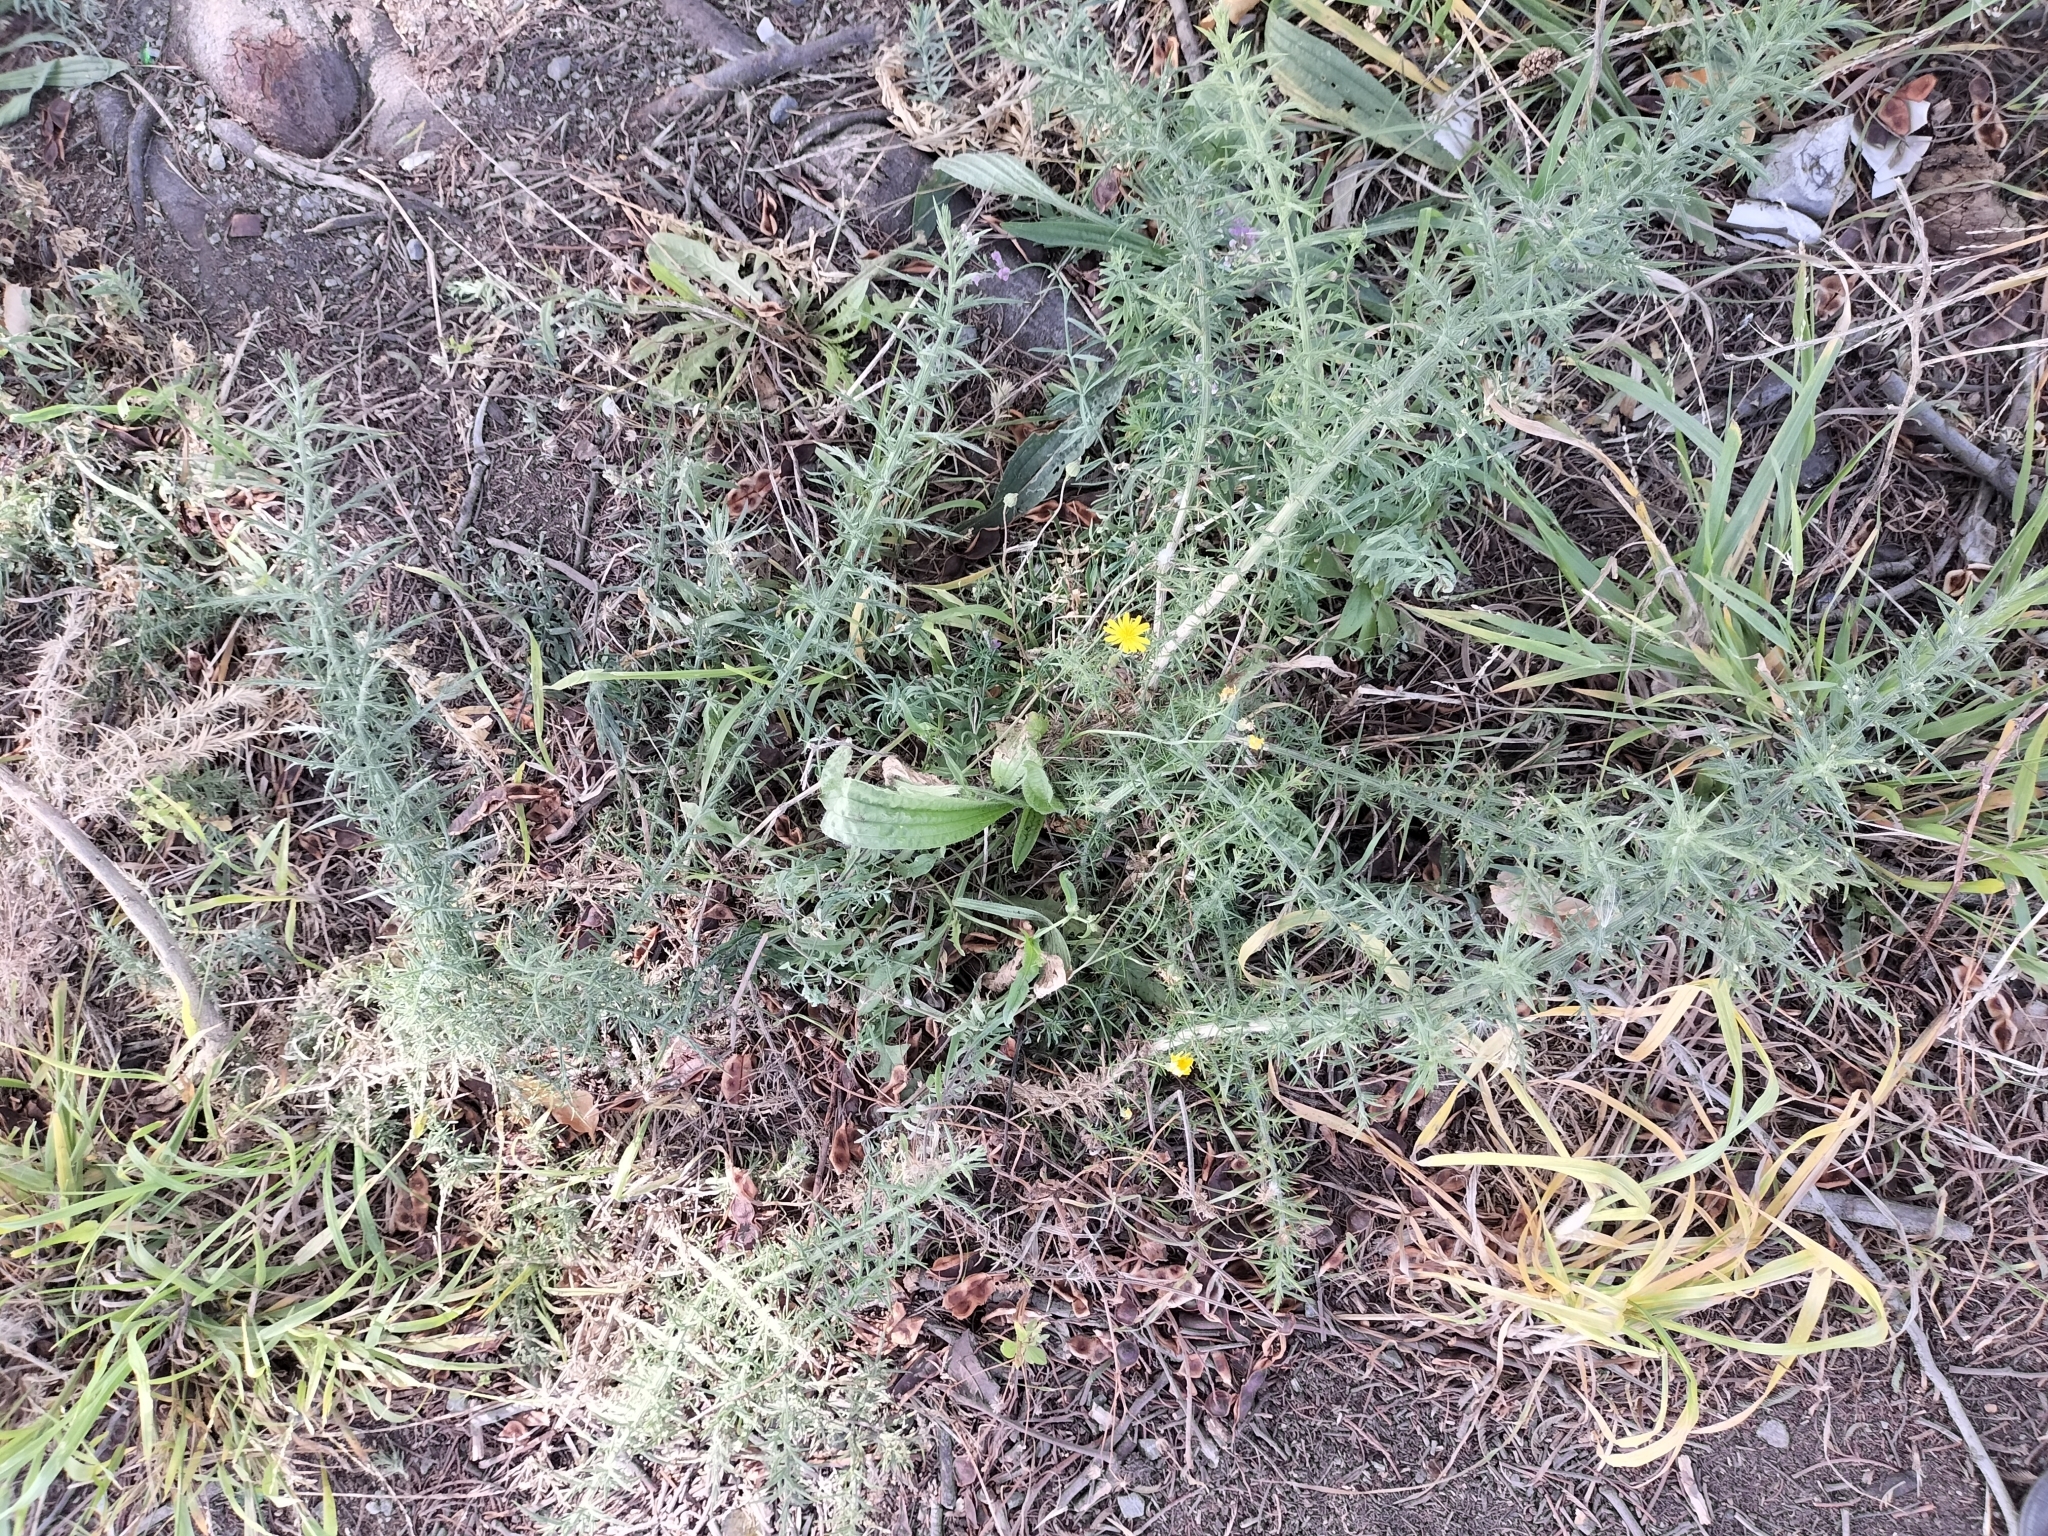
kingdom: Plantae
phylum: Tracheophyta
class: Magnoliopsida
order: Fabales
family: Fabaceae
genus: Ulex
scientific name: Ulex europaeus
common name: Common gorse
